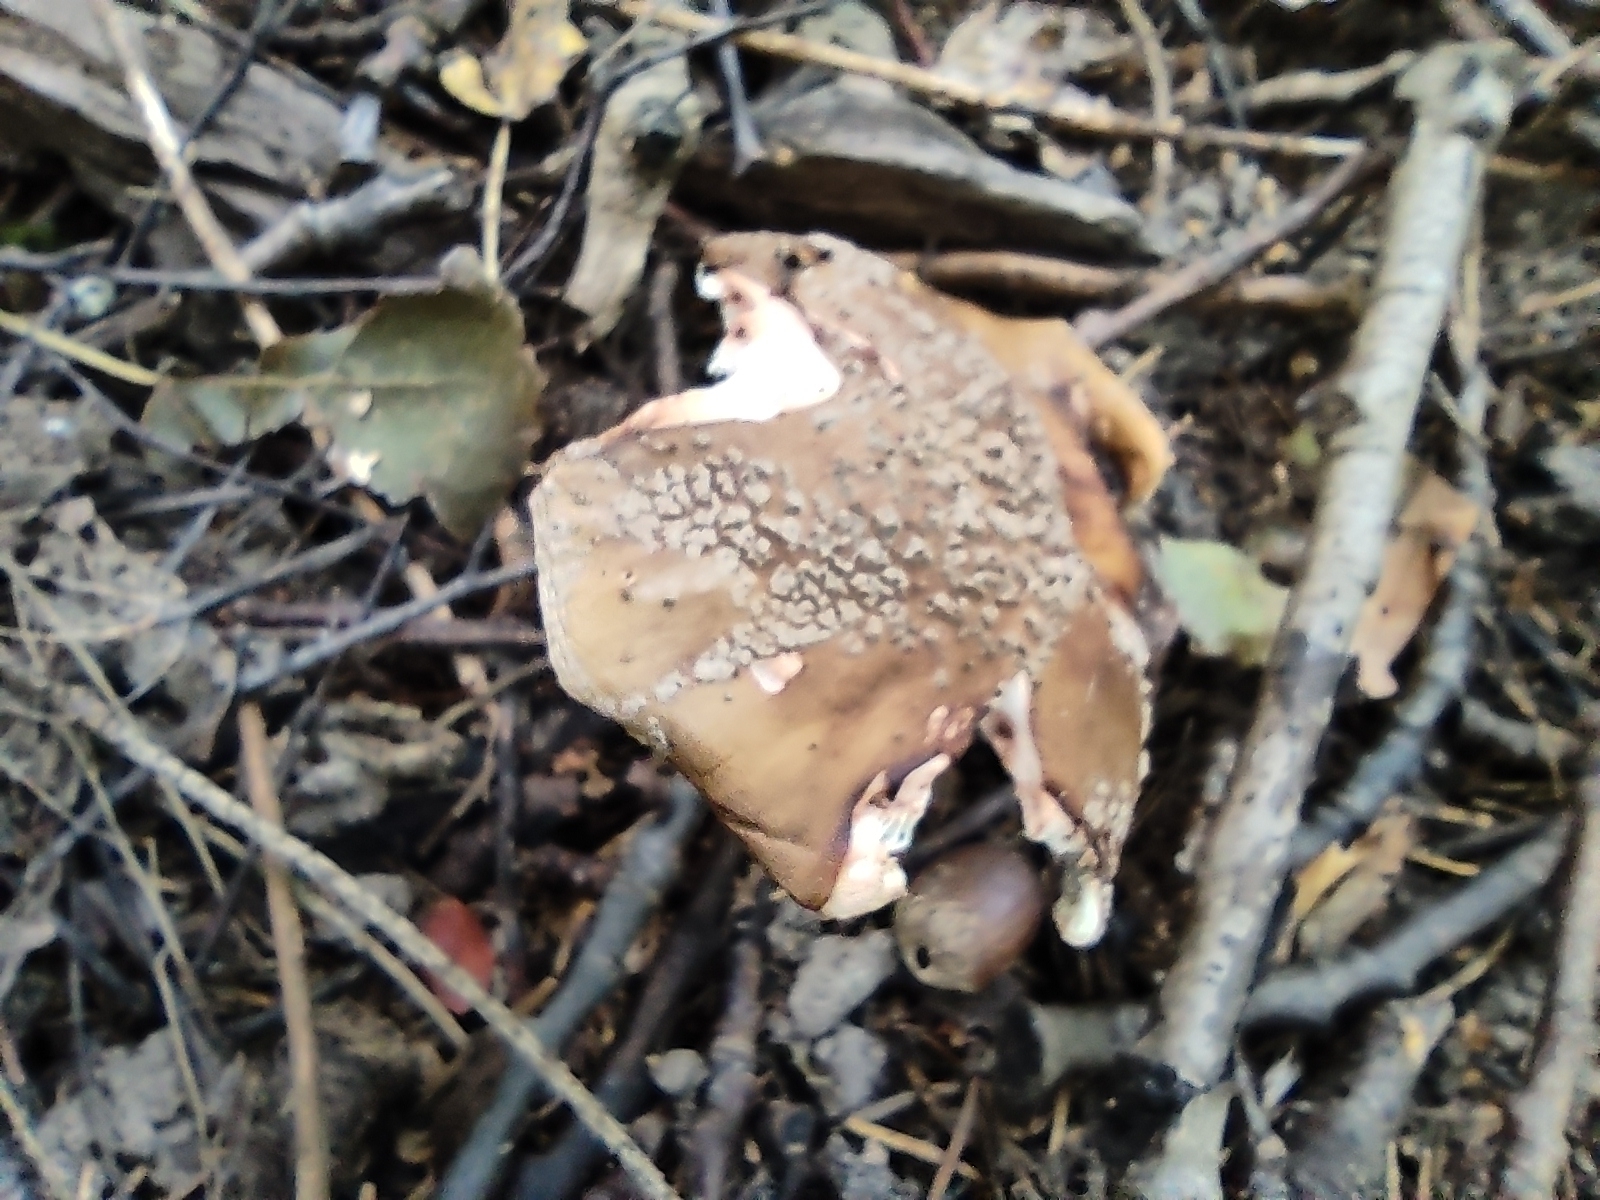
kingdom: Fungi
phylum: Basidiomycota
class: Agaricomycetes
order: Agaricales
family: Amanitaceae
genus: Amanita
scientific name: Amanita rubescens
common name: Blusher
